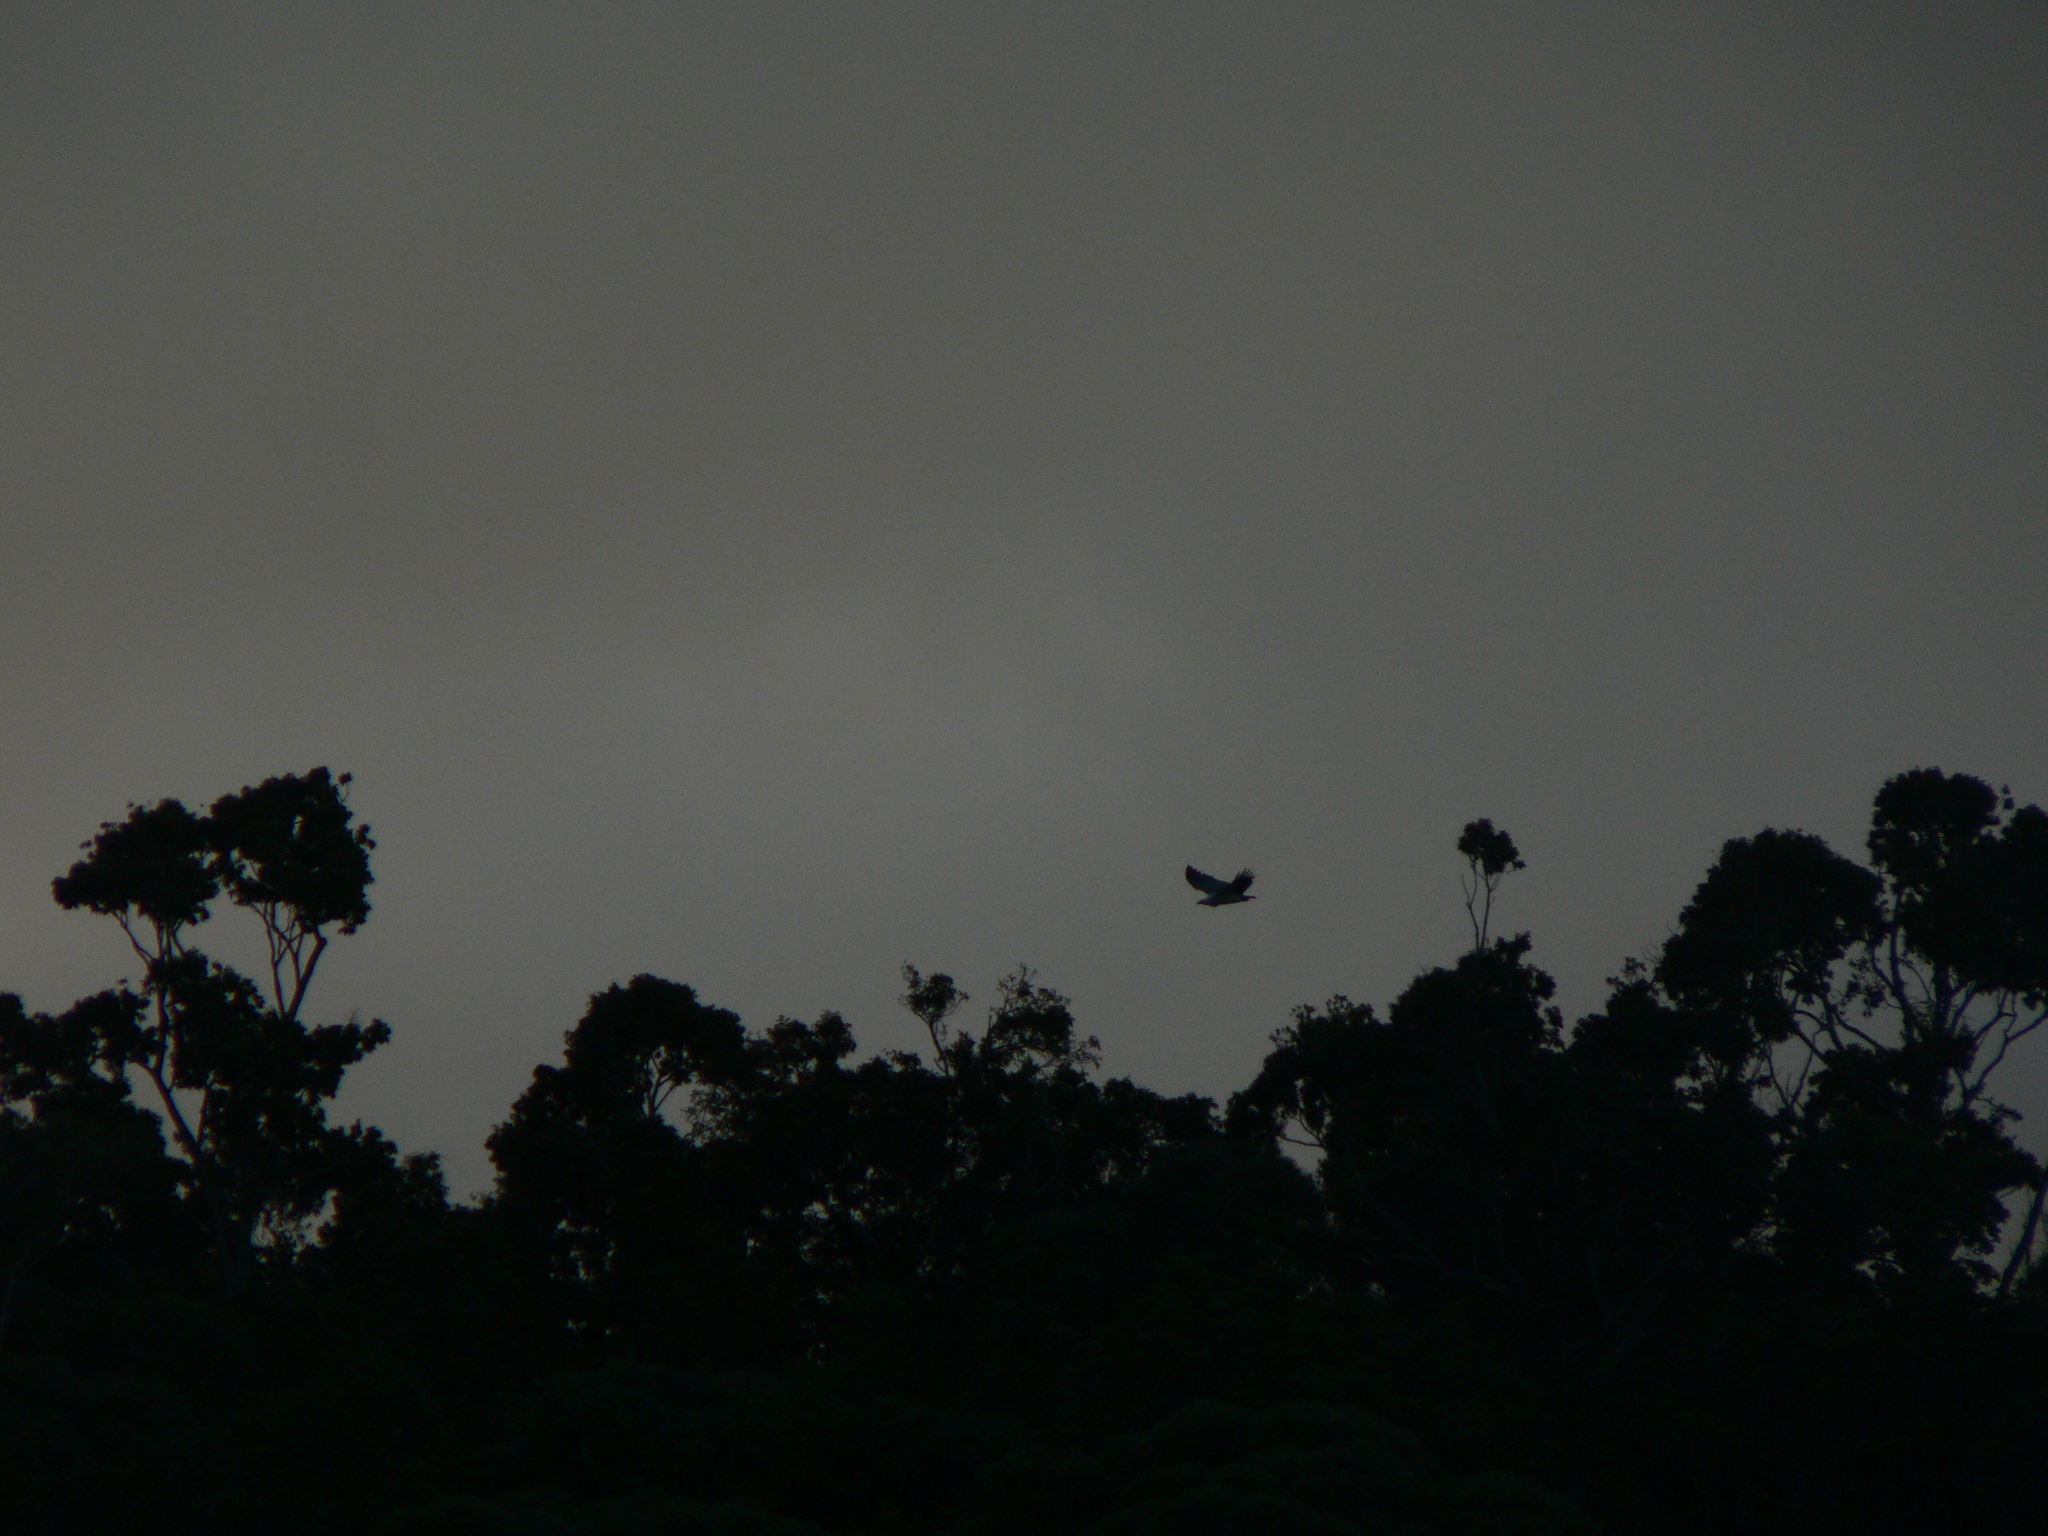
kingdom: Animalia
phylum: Chordata
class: Aves
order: Accipitriformes
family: Accipitridae
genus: Haliaeetus
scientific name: Haliaeetus leucogaster
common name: White-bellied sea eagle
